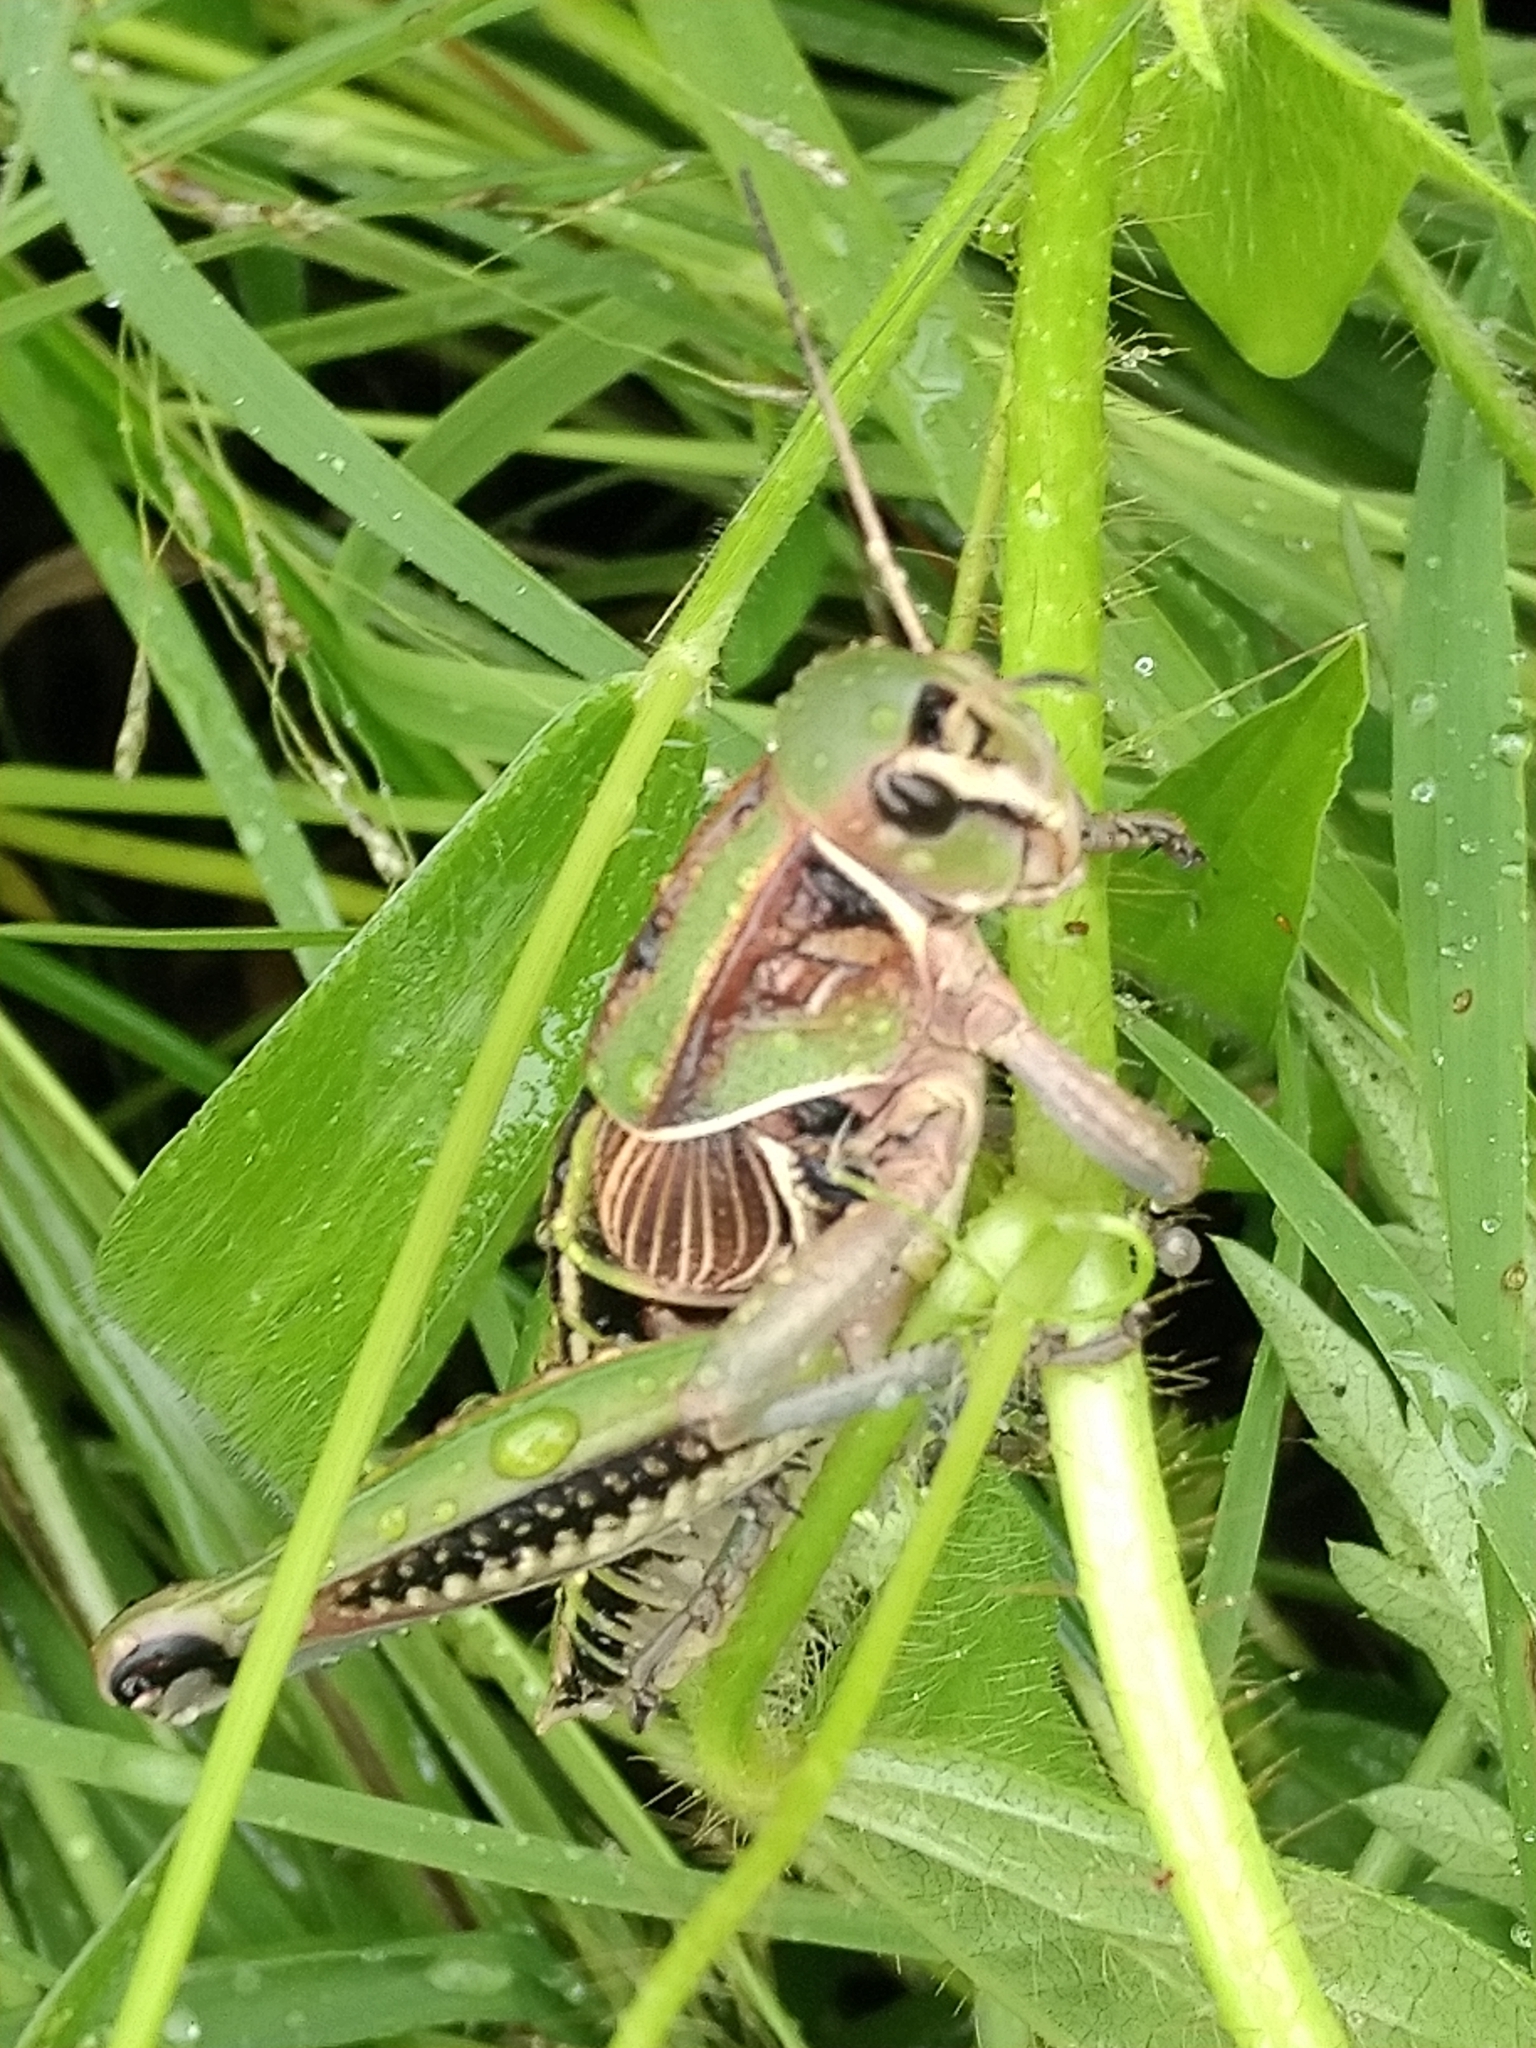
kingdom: Animalia
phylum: Arthropoda
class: Insecta
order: Orthoptera
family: Romaleidae
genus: Brachystola
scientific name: Brachystola mexicana
